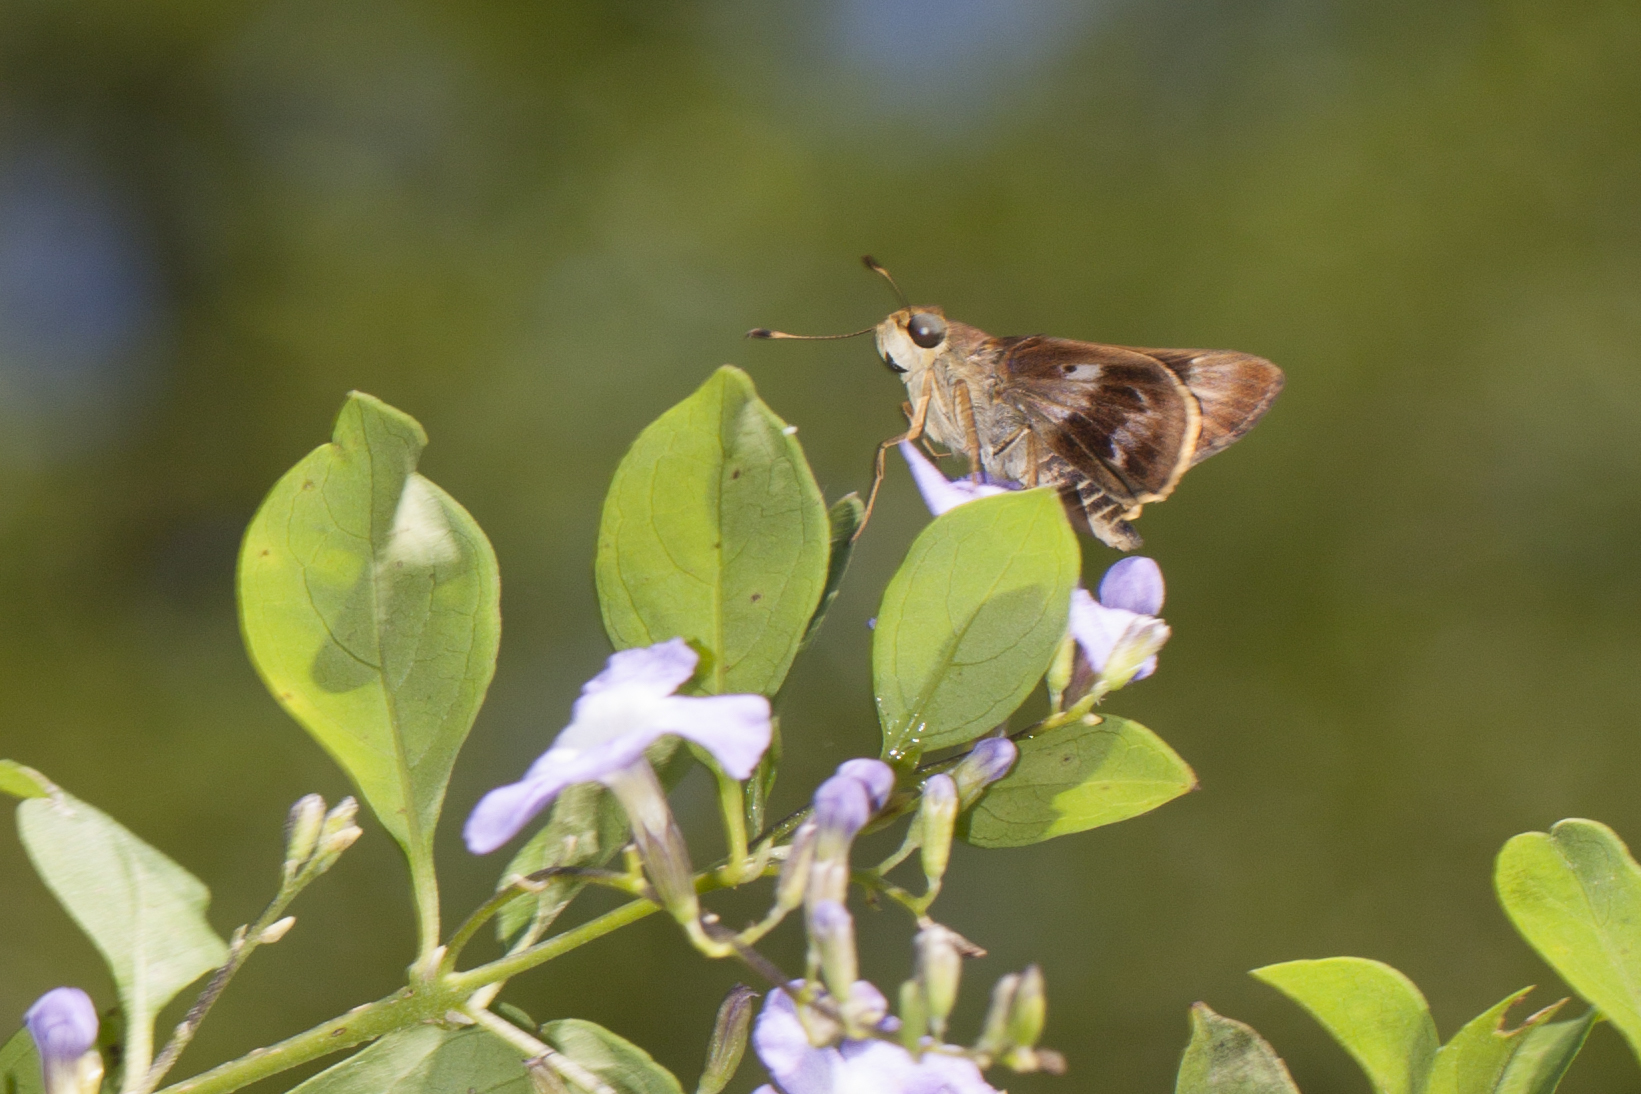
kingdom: Animalia
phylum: Arthropoda
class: Insecta
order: Lepidoptera
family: Hesperiidae
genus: Nyctelius
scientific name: Nyctelius nyctelius
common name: Violet-banded skipper
